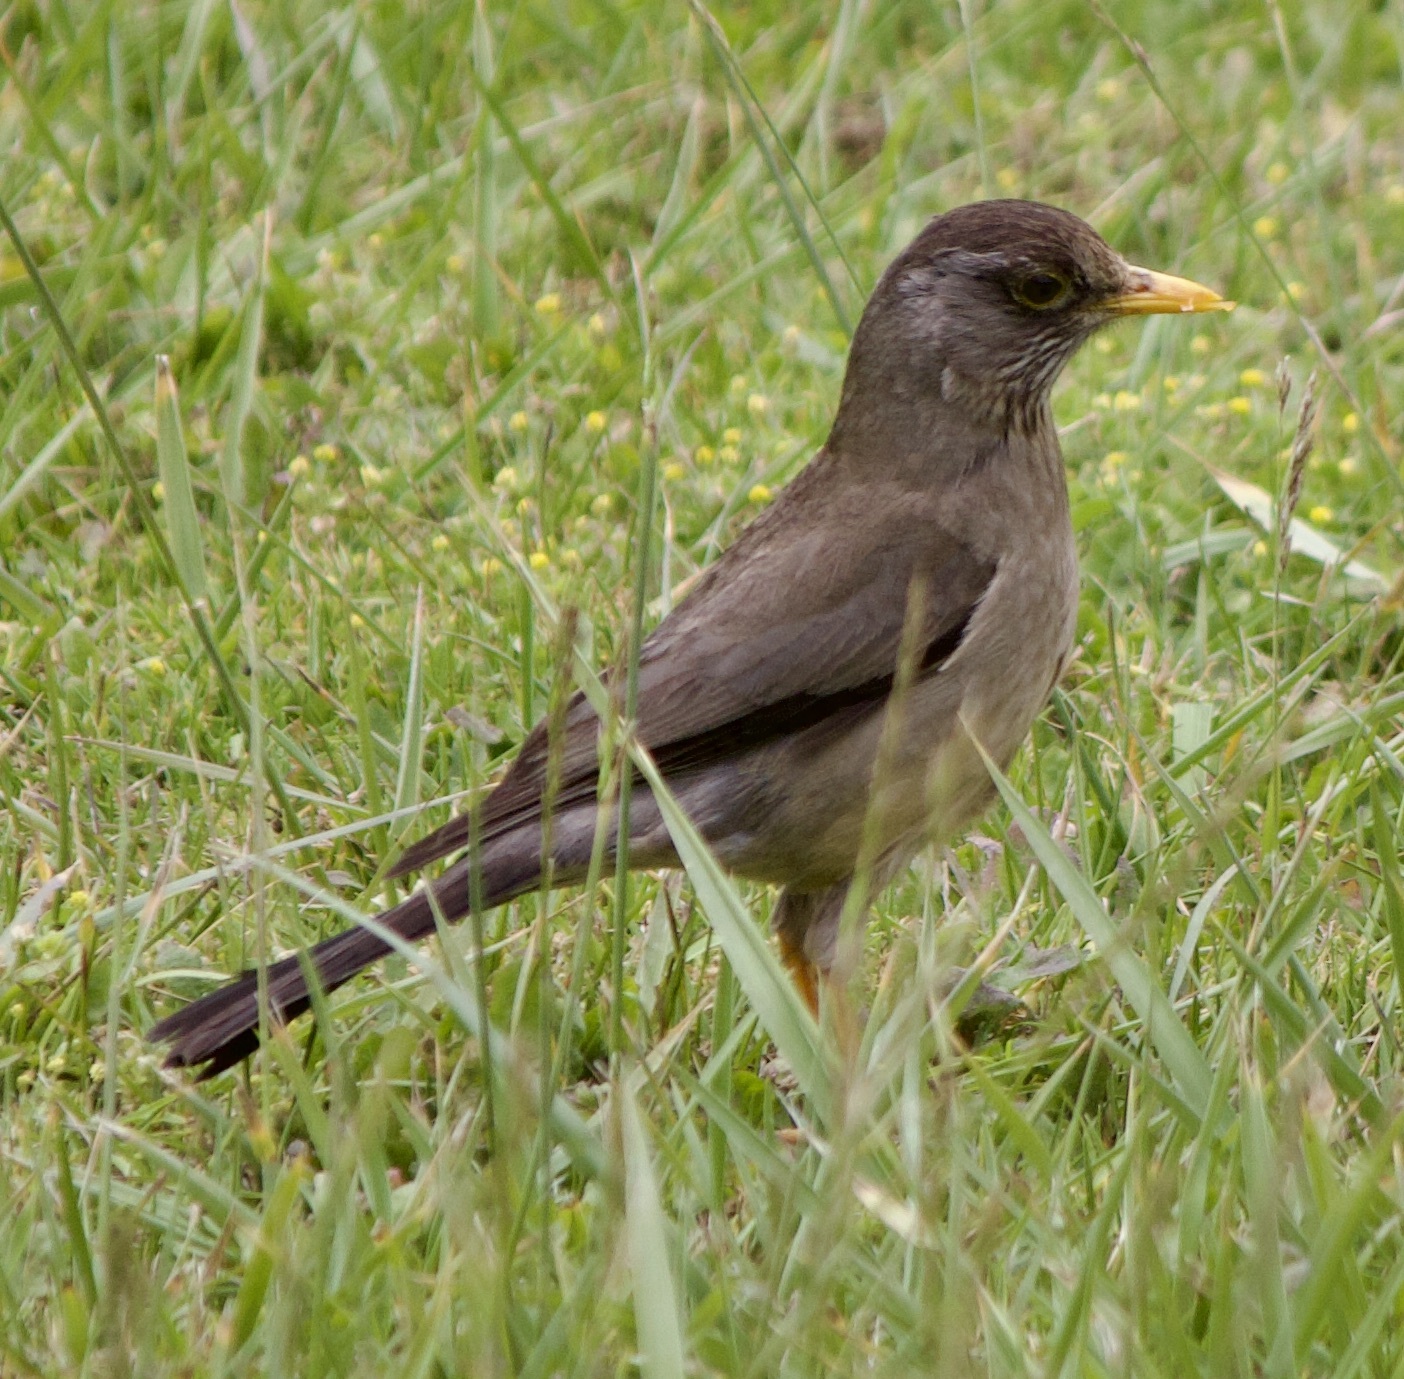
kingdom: Animalia
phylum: Chordata
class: Aves
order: Passeriformes
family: Turdidae
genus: Turdus
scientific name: Turdus falcklandii
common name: Austral thrush
